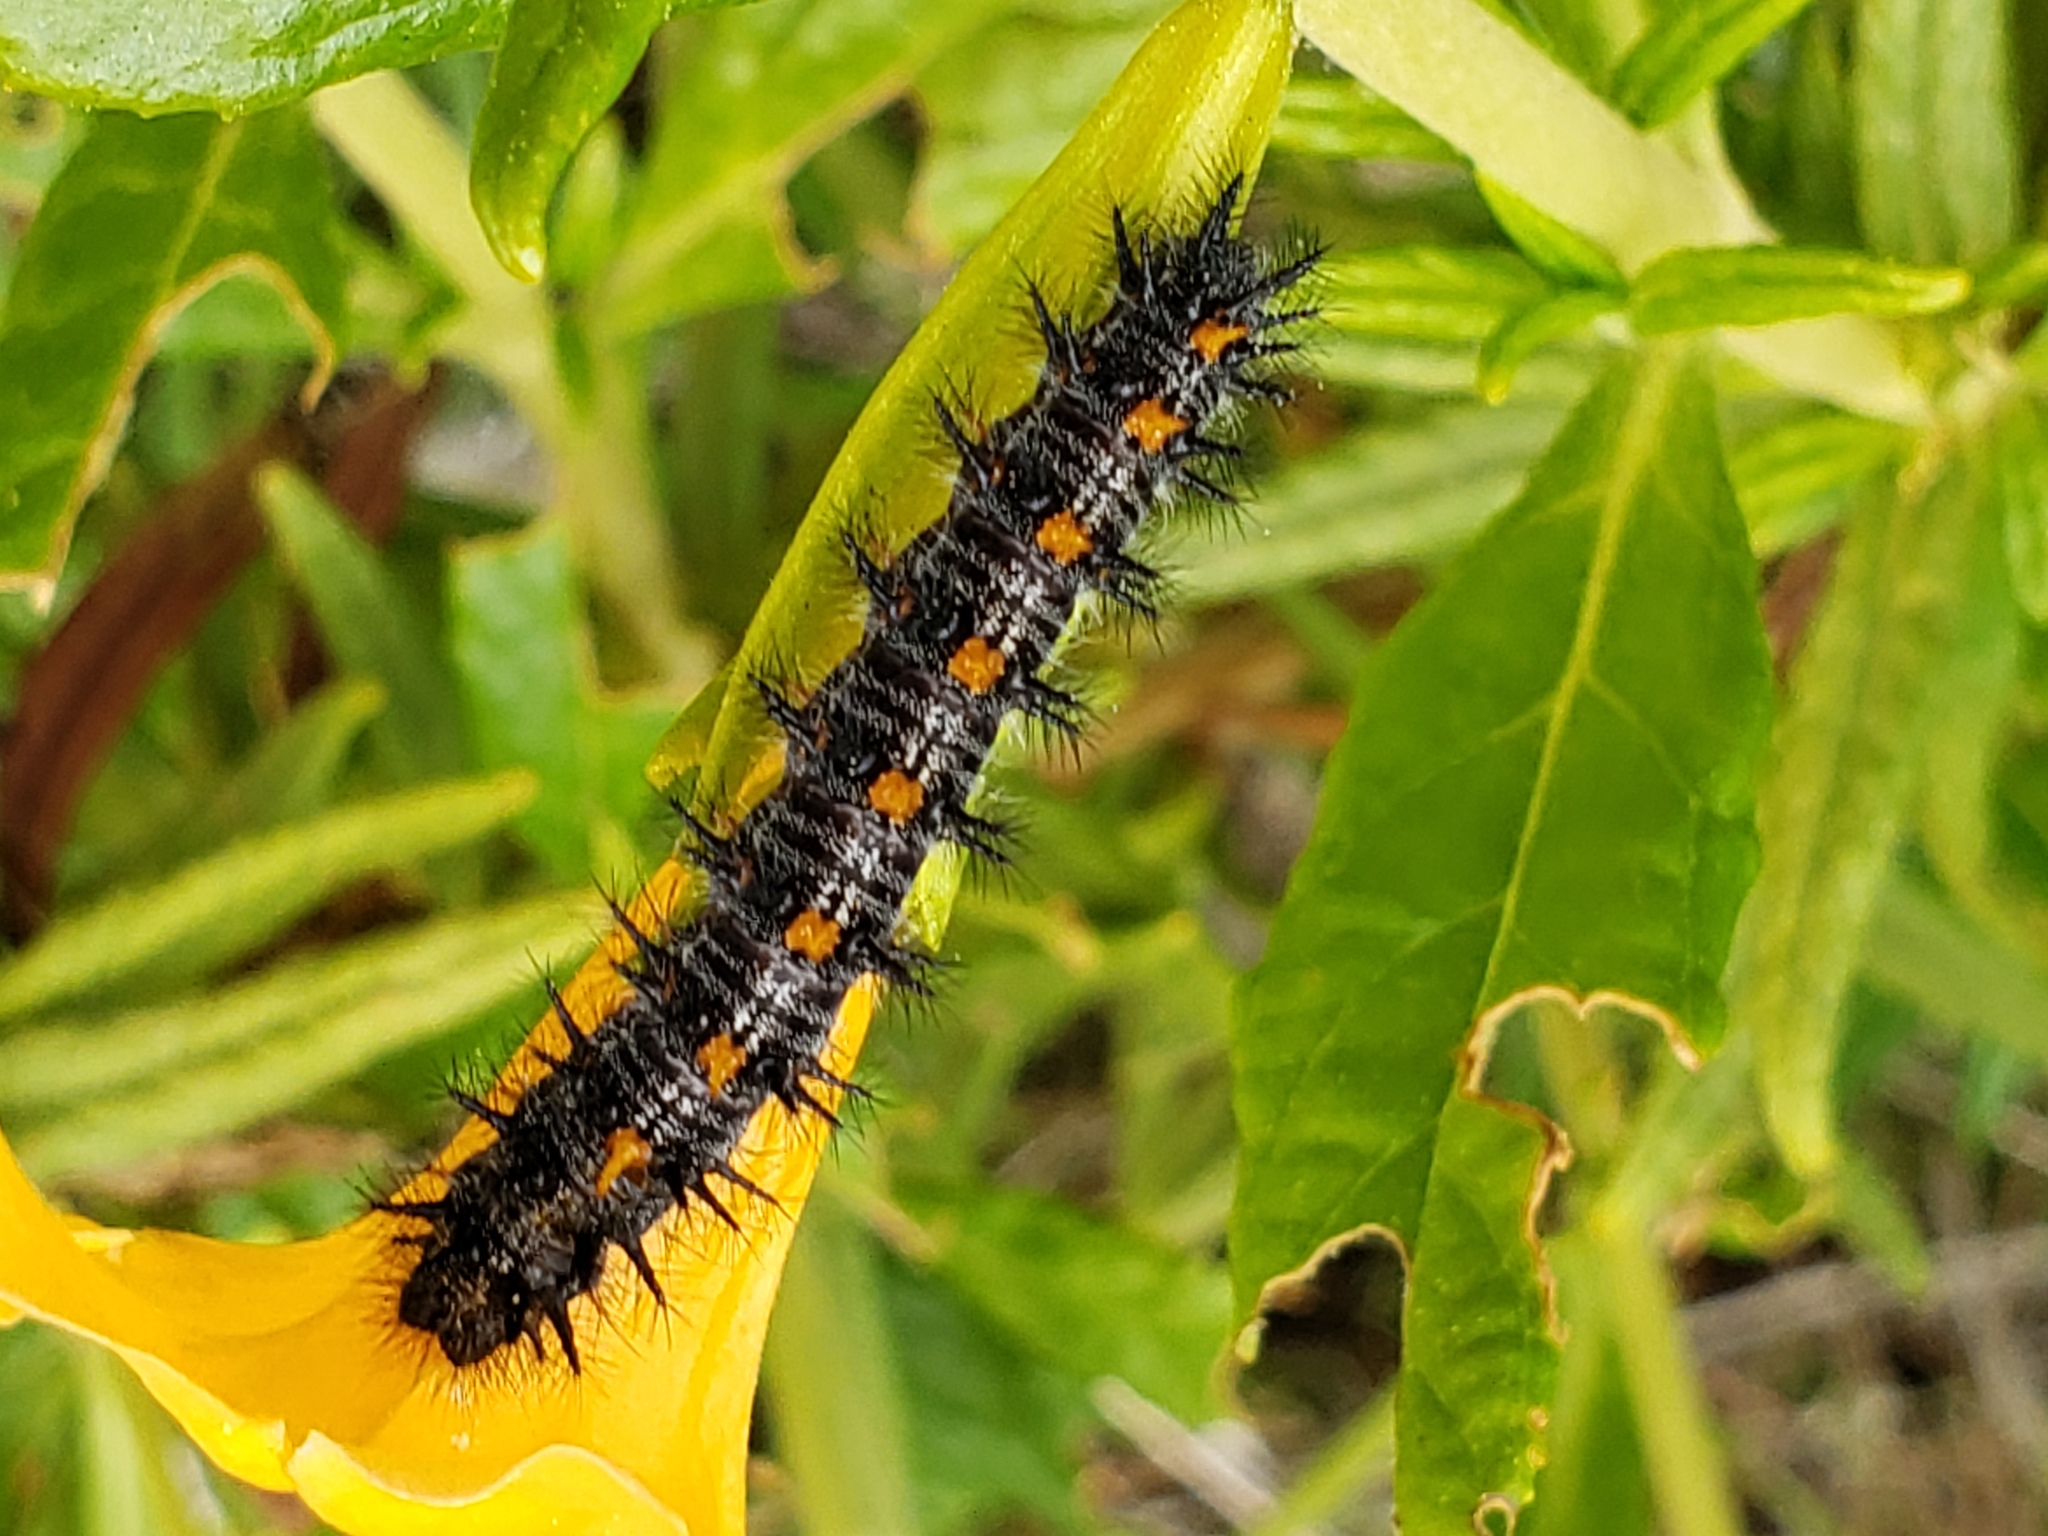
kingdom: Animalia
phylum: Arthropoda
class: Insecta
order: Lepidoptera
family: Nymphalidae
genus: Occidryas
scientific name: Occidryas chalcedona
